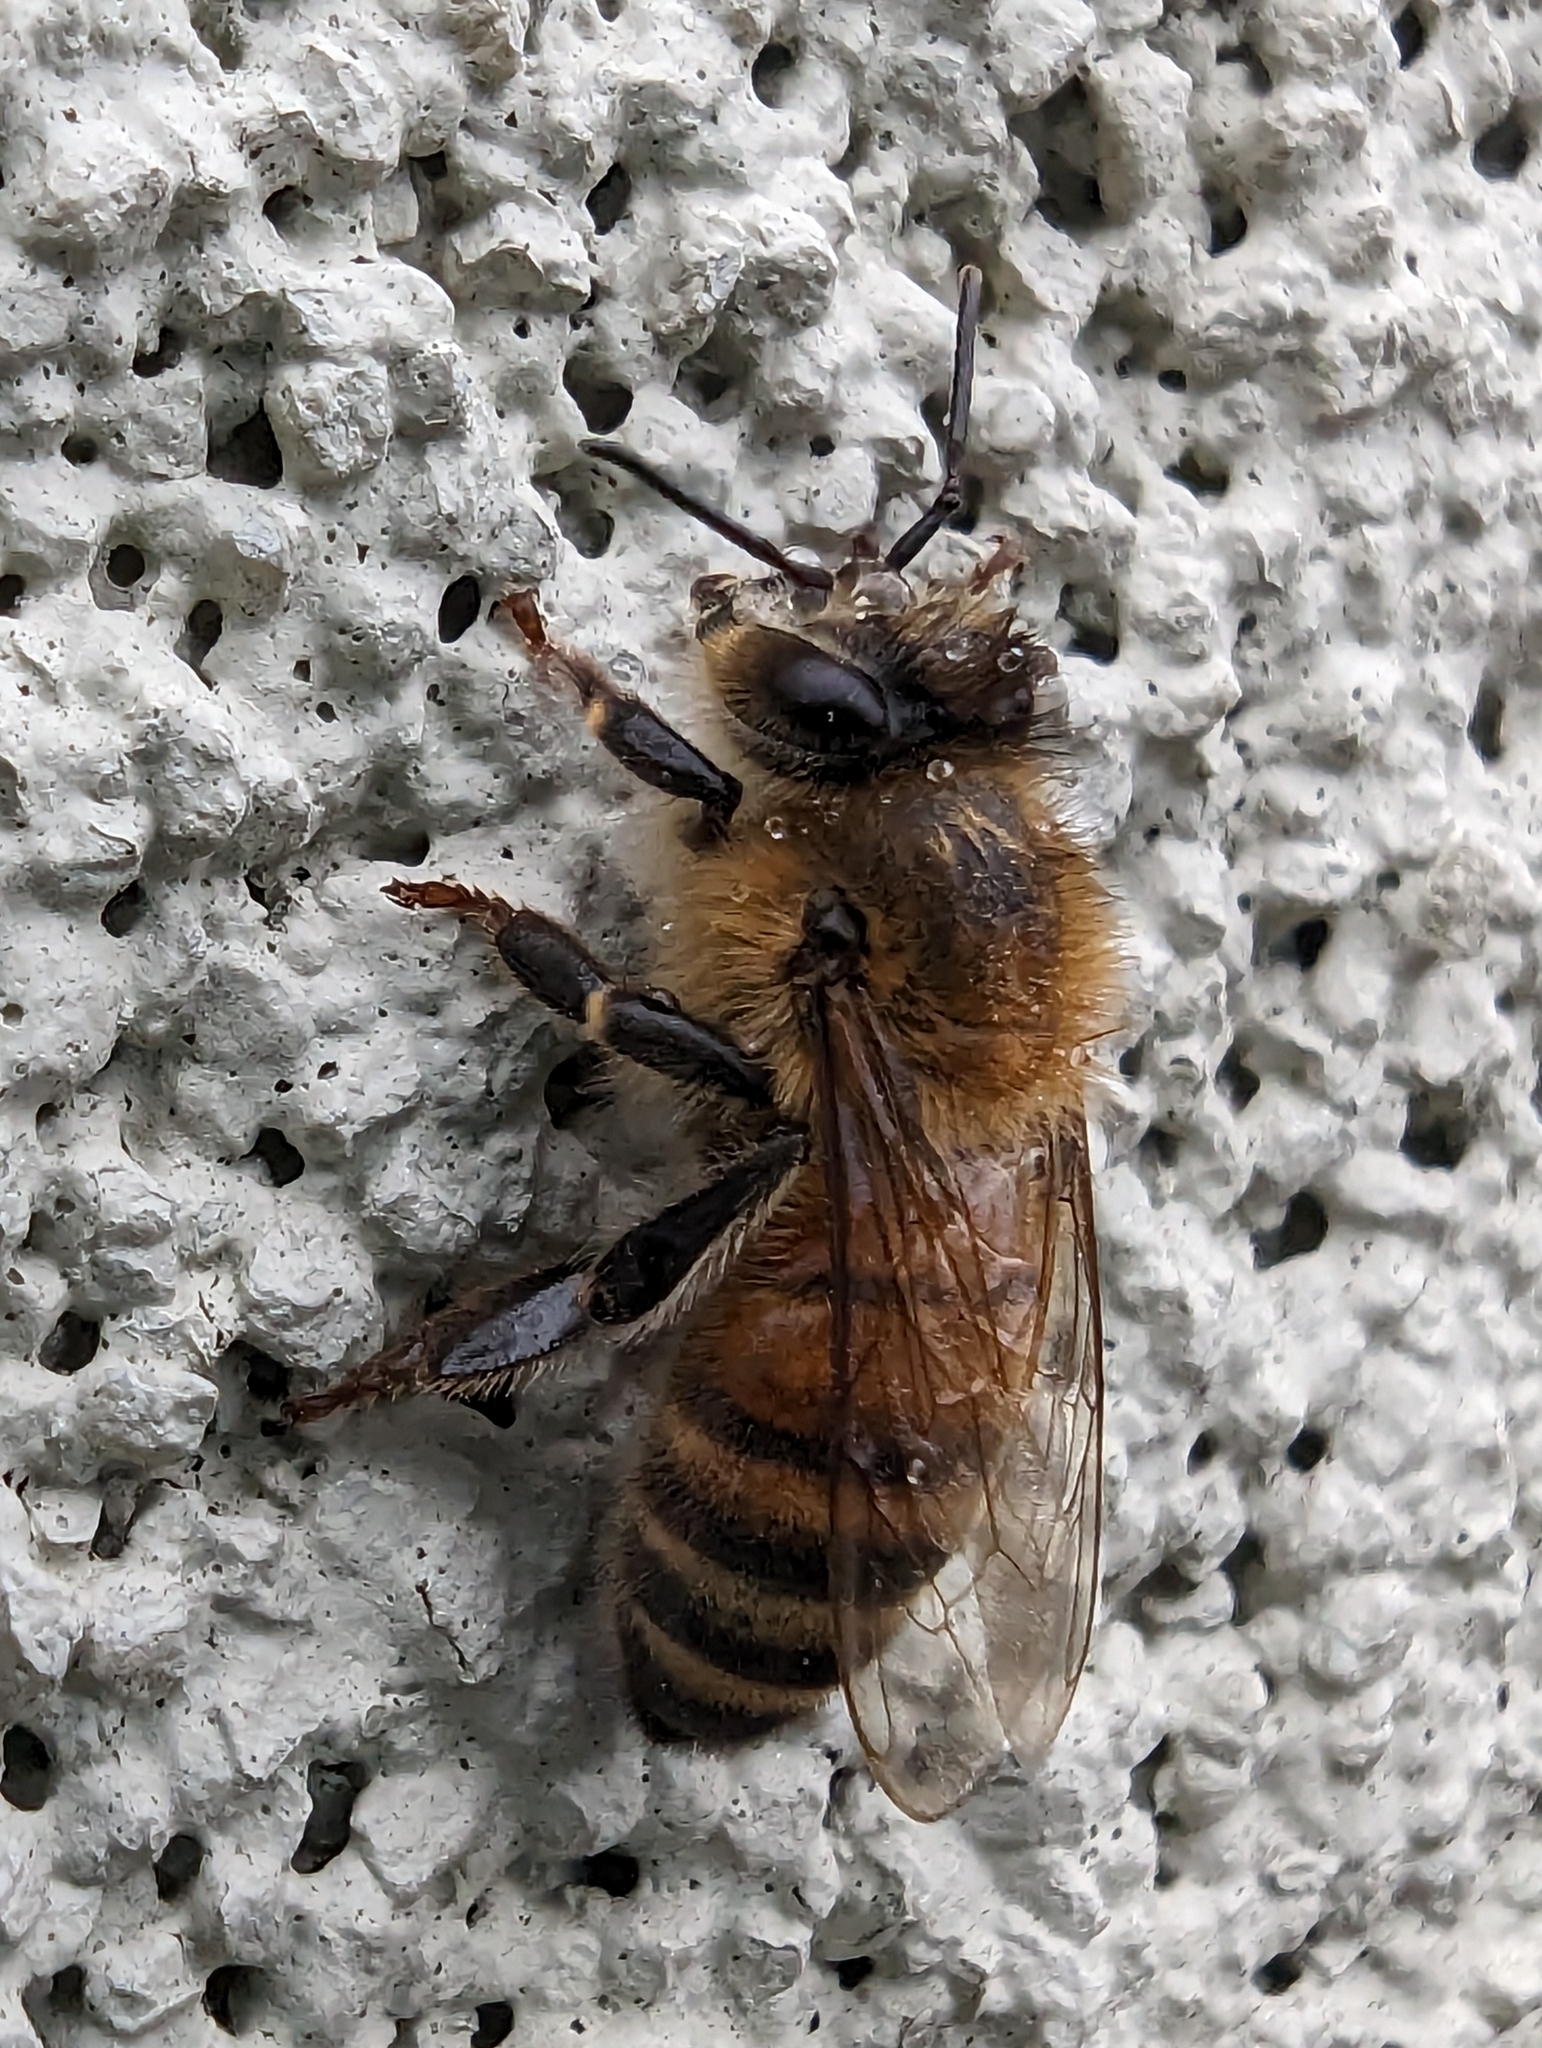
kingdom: Animalia
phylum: Arthropoda
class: Insecta
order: Hymenoptera
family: Apidae
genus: Apis
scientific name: Apis mellifera
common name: Honey bee
